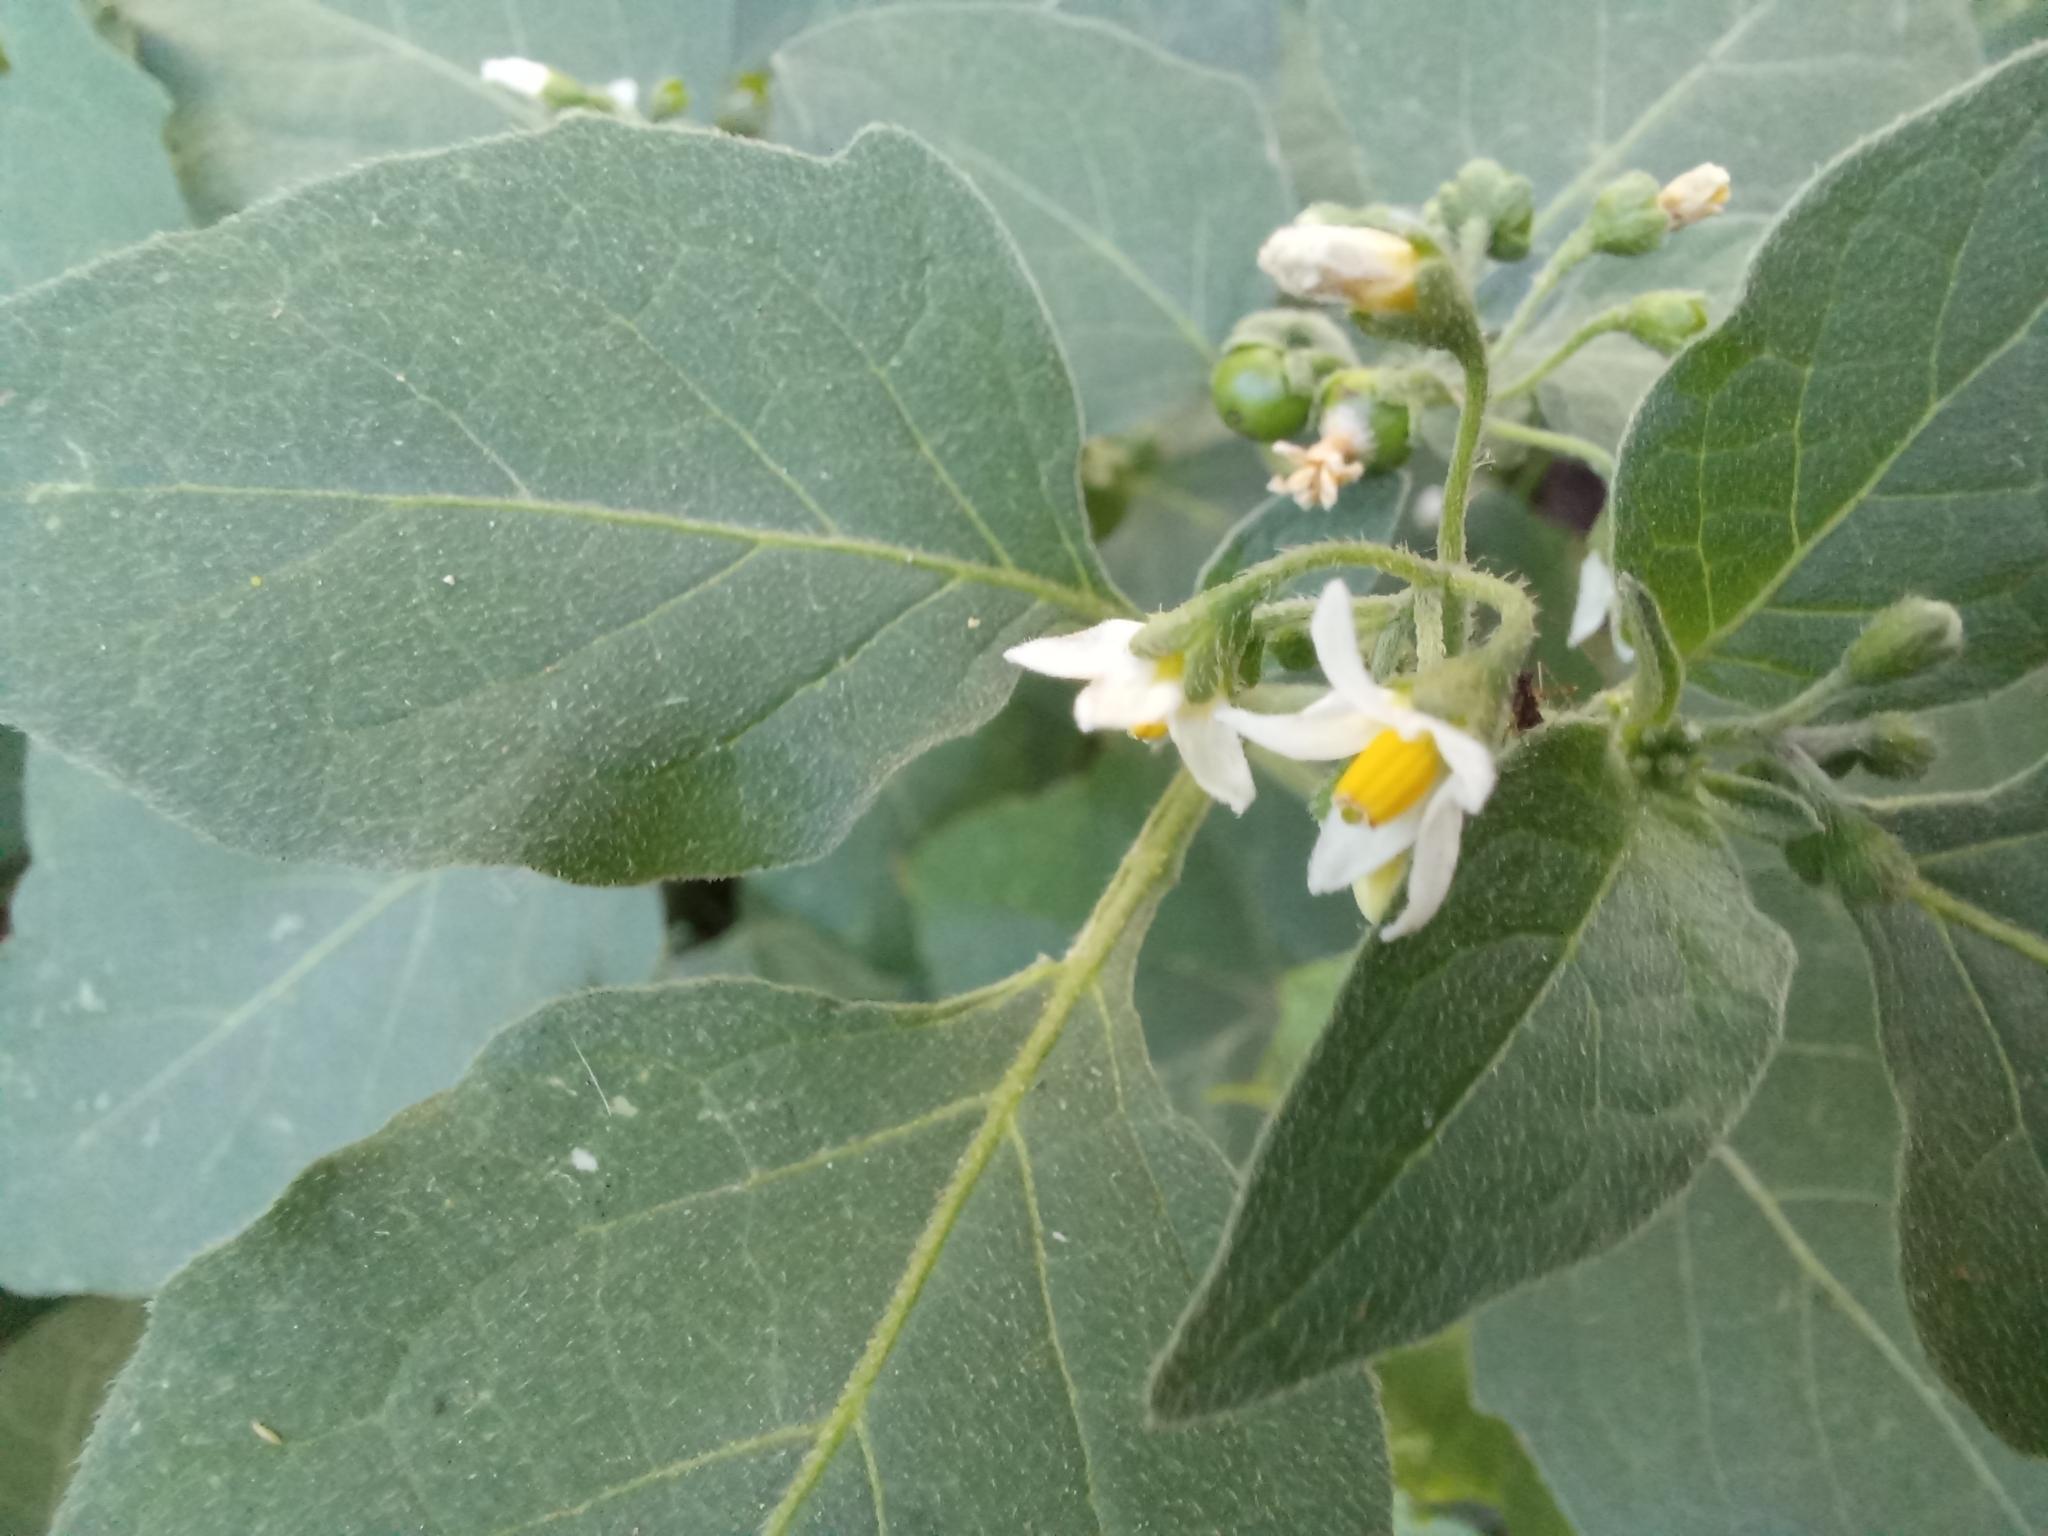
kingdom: Plantae
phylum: Tracheophyta
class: Magnoliopsida
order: Solanales
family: Solanaceae
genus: Solanum
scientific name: Solanum nigrum
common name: Black nightshade
